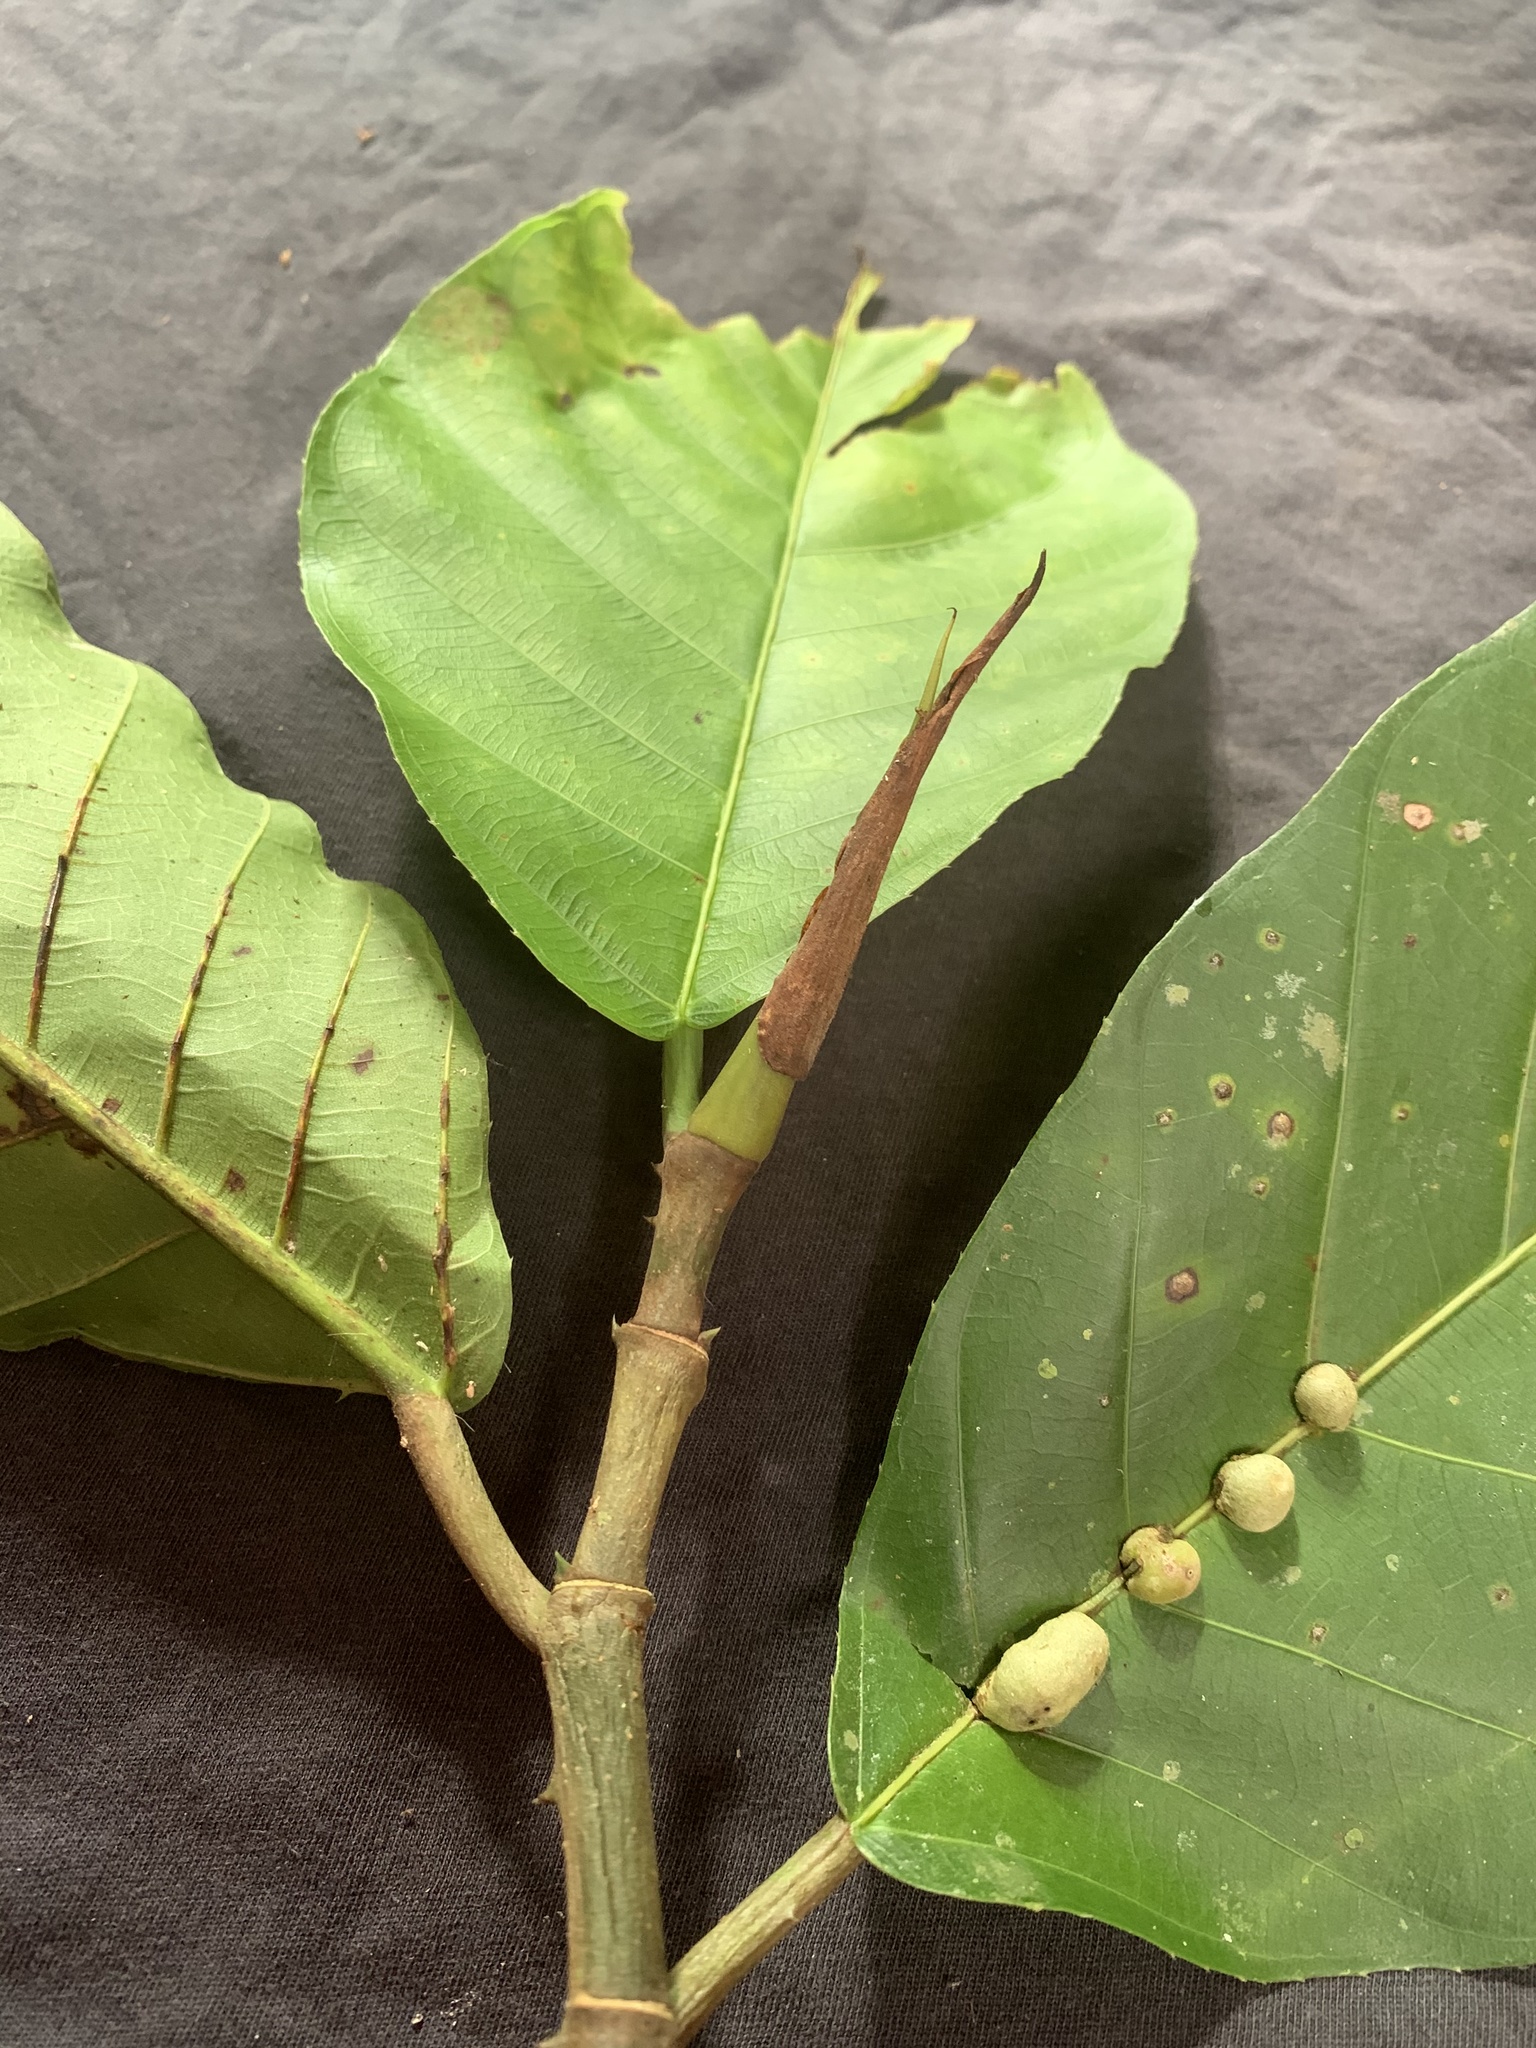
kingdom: Plantae
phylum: Tracheophyta
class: Magnoliopsida
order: Rosales
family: Moraceae
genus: Poulsenia
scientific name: Poulsenia armata
